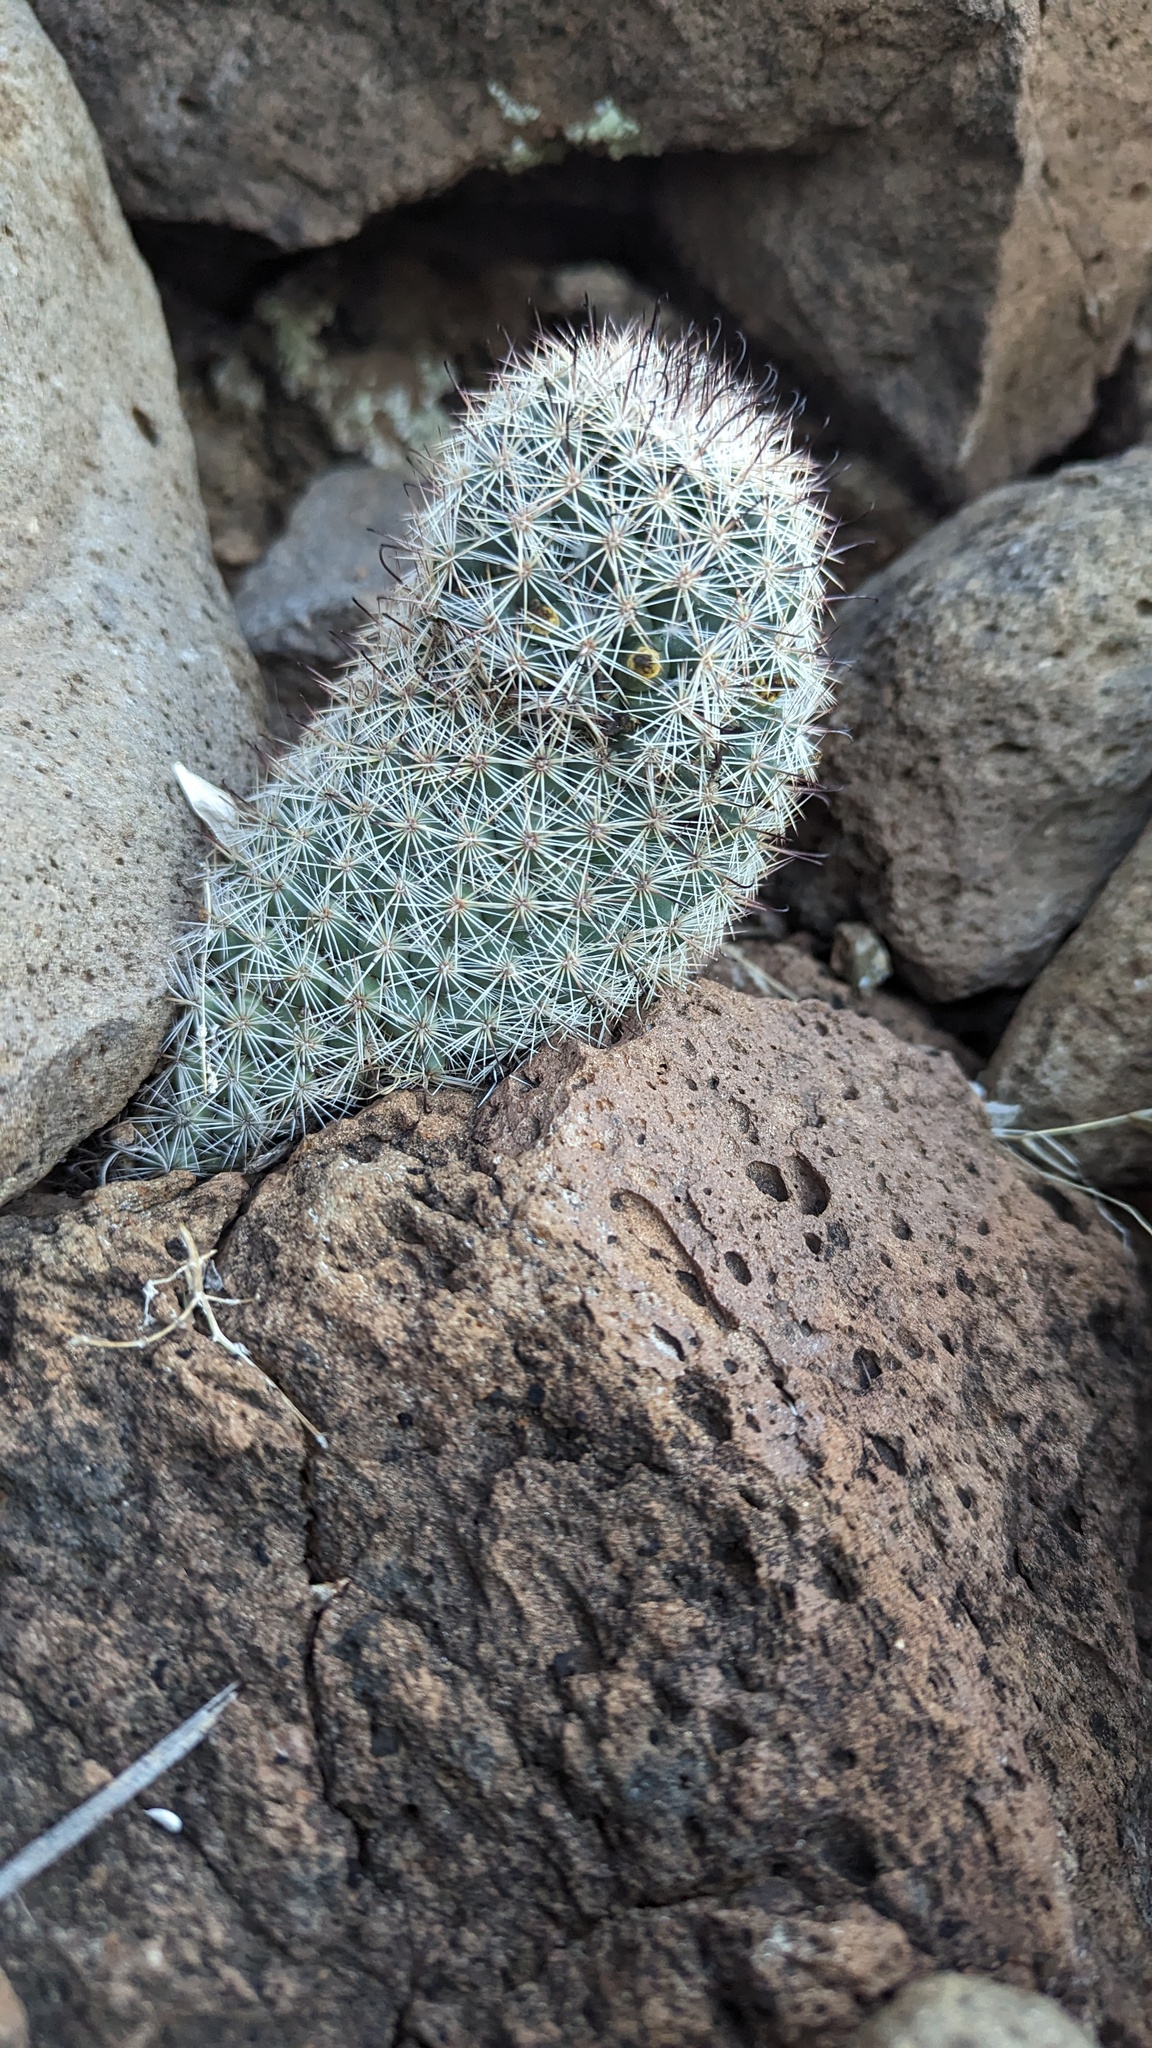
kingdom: Plantae
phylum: Tracheophyta
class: Magnoliopsida
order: Caryophyllales
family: Cactaceae
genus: Cochemiea
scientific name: Cochemiea dioica
